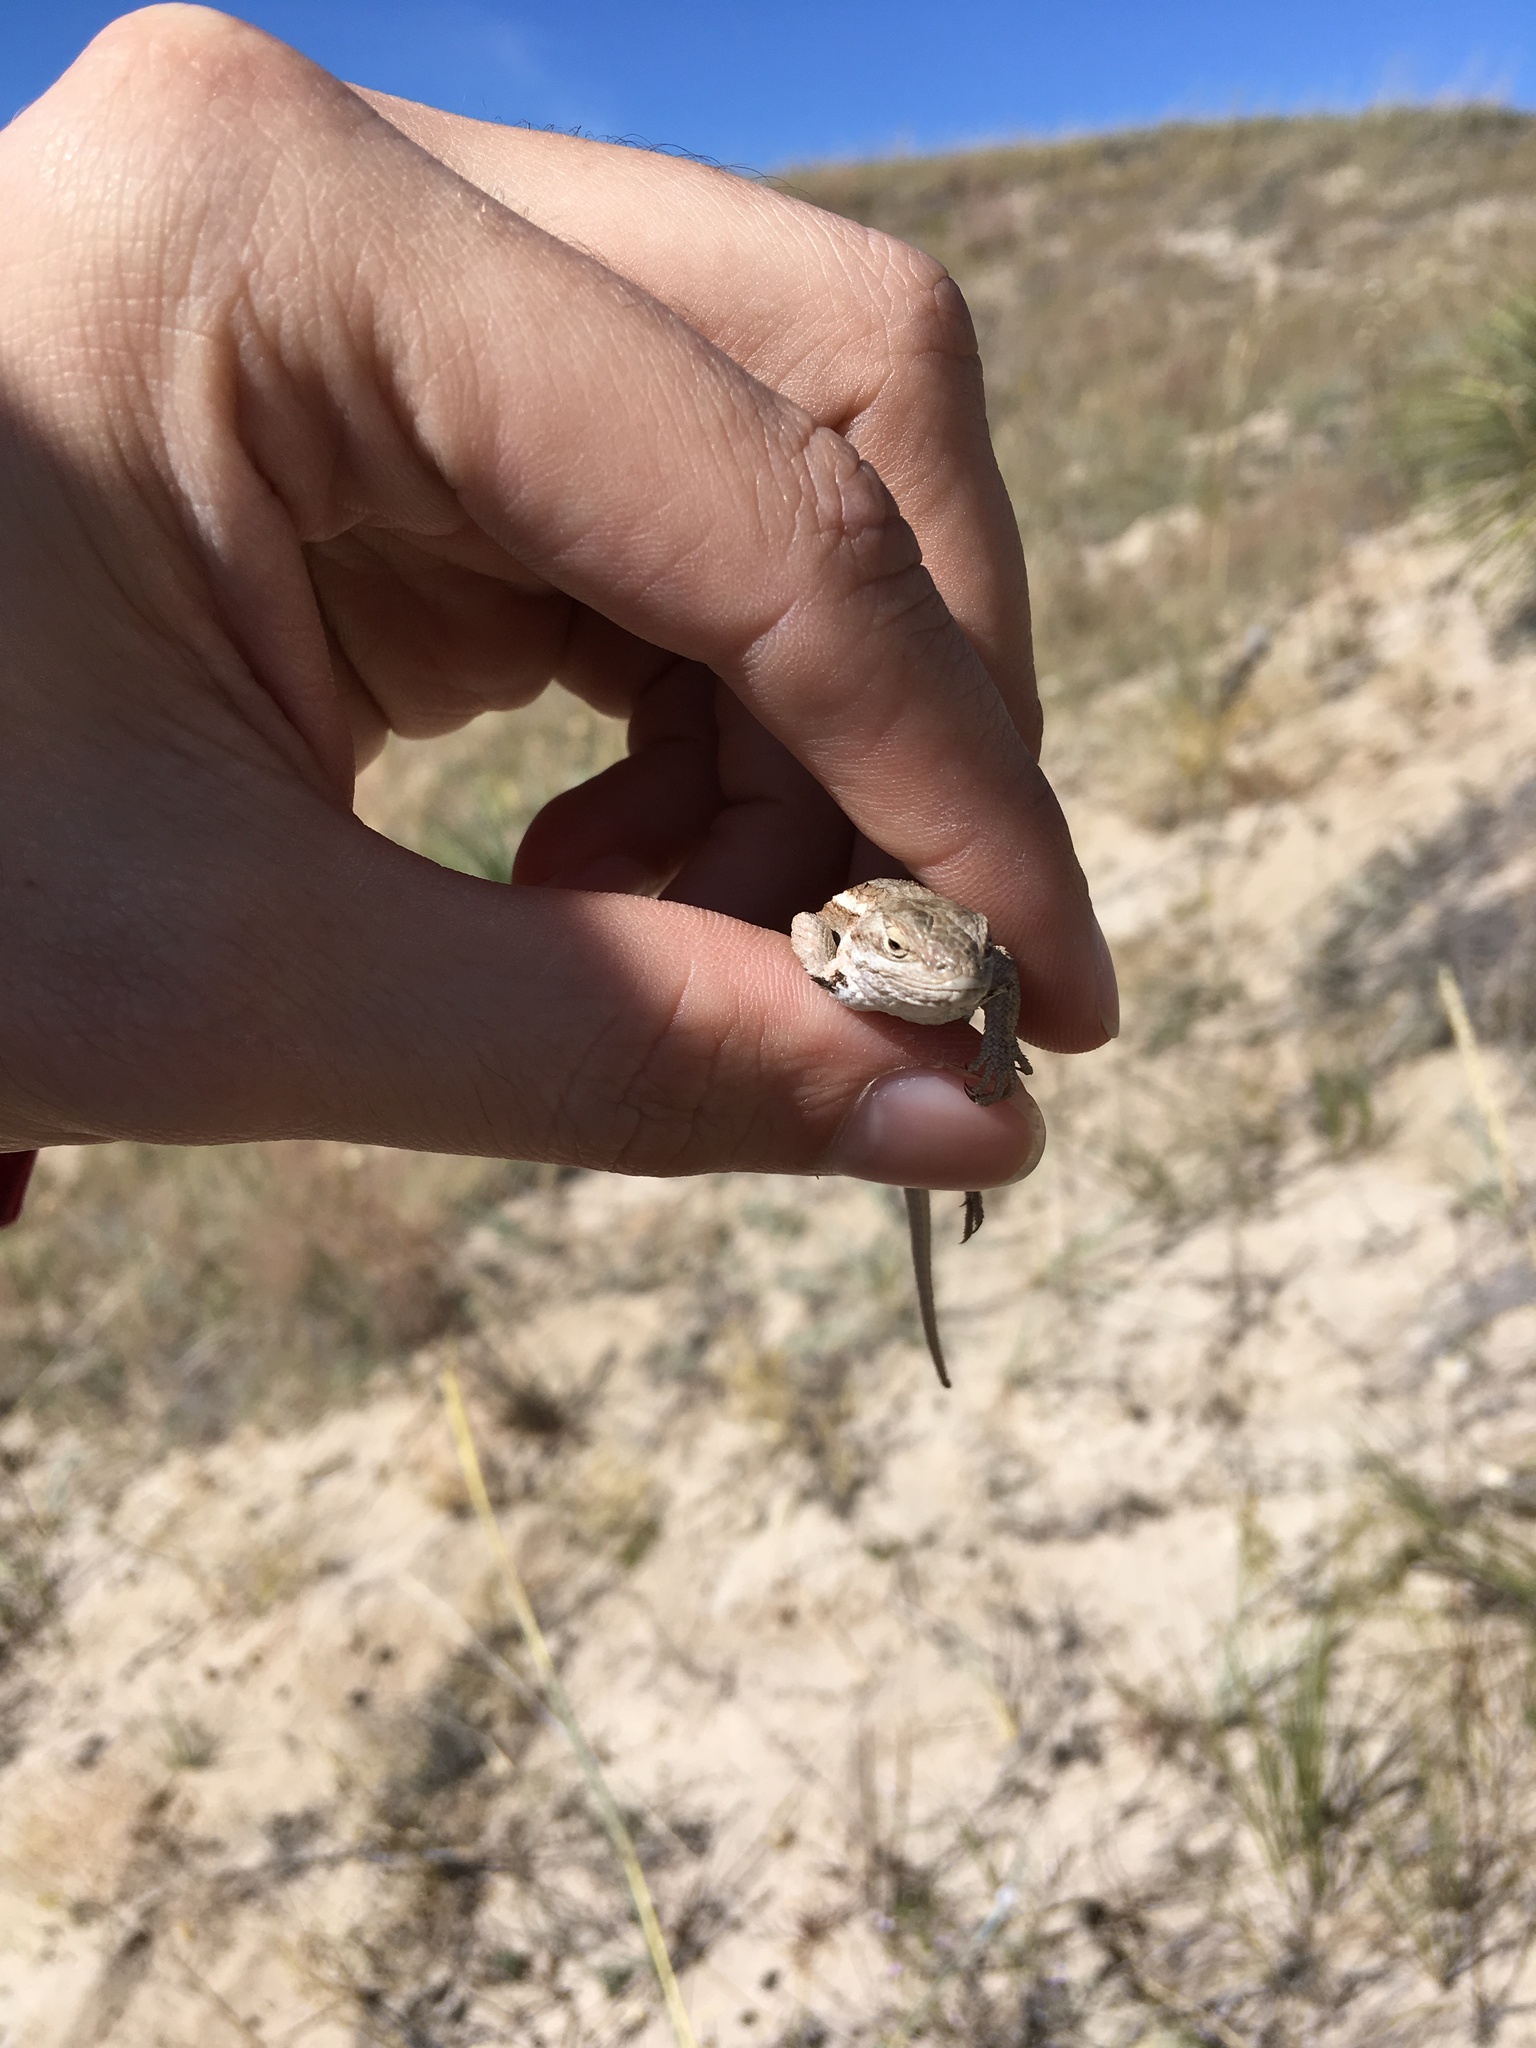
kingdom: Animalia
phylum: Chordata
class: Squamata
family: Phrynosomatidae
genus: Sceloporus
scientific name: Sceloporus consobrinus
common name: Southern prairie lizard
